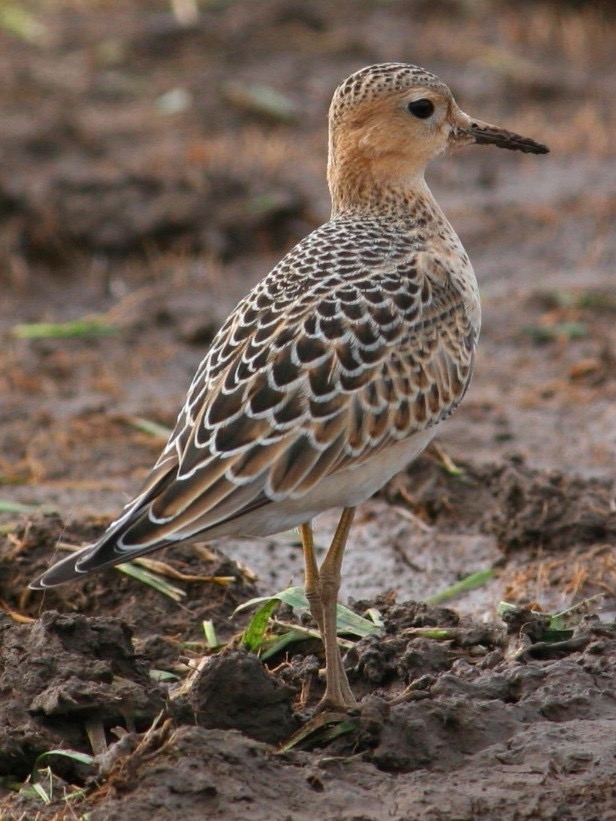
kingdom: Animalia
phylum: Chordata
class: Aves
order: Charadriiformes
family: Scolopacidae
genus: Calidris
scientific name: Calidris subruficollis
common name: Buff-breasted sandpiper
